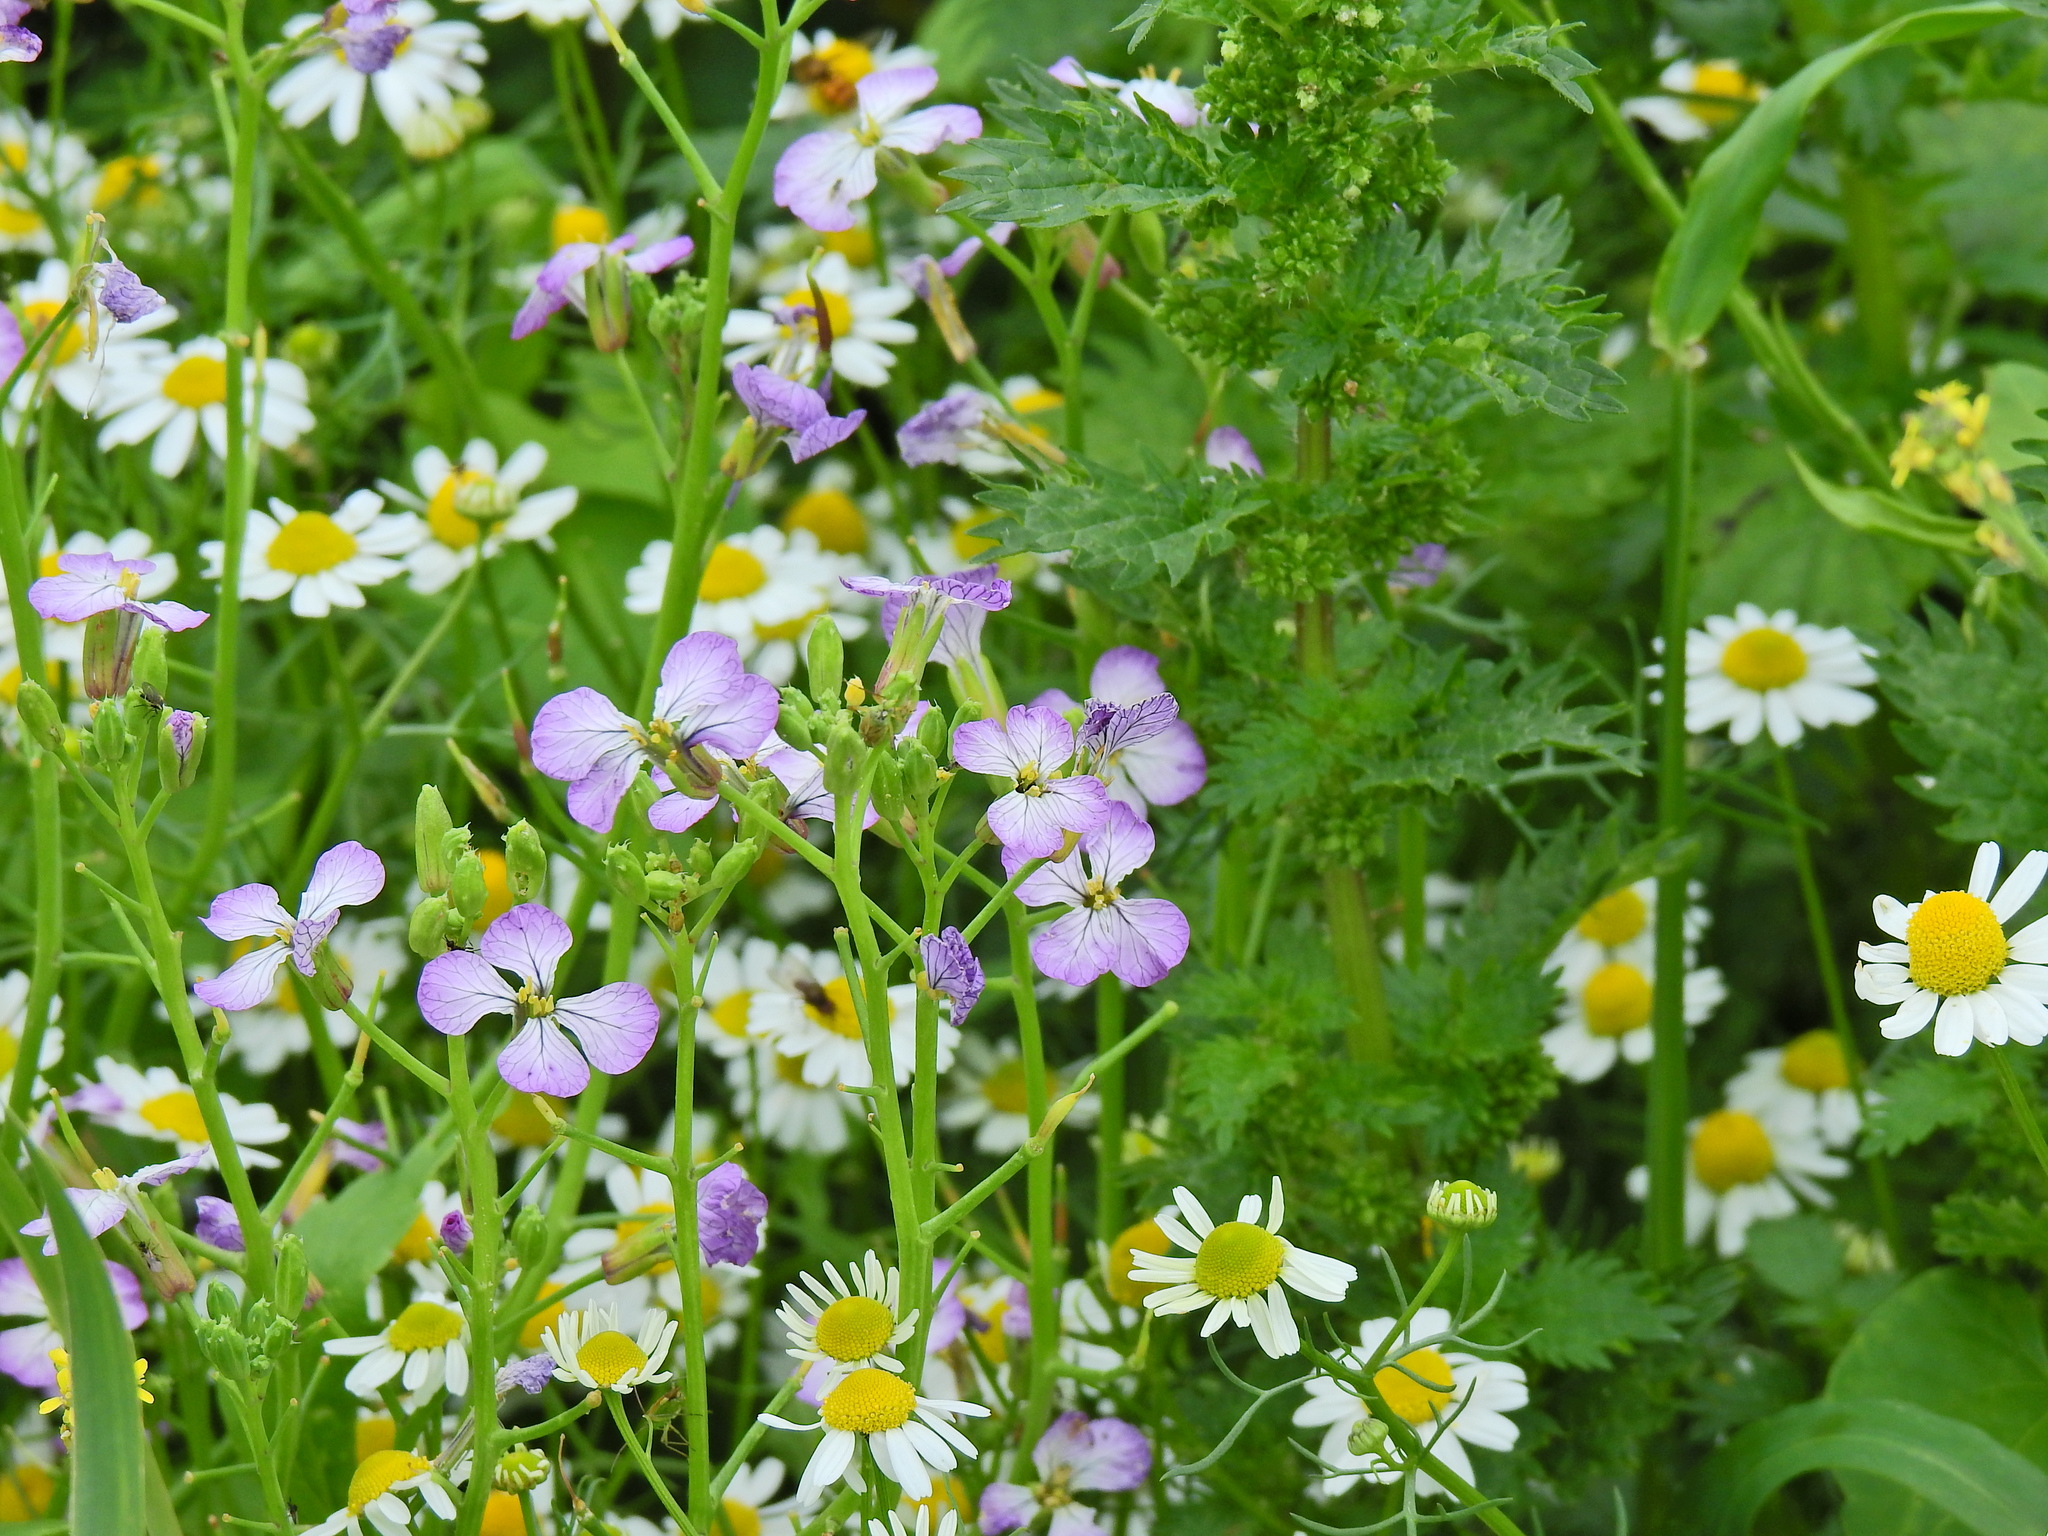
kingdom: Plantae
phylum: Tracheophyta
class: Magnoliopsida
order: Brassicales
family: Brassicaceae
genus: Raphanus
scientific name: Raphanus sativus
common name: Cultivated radish
